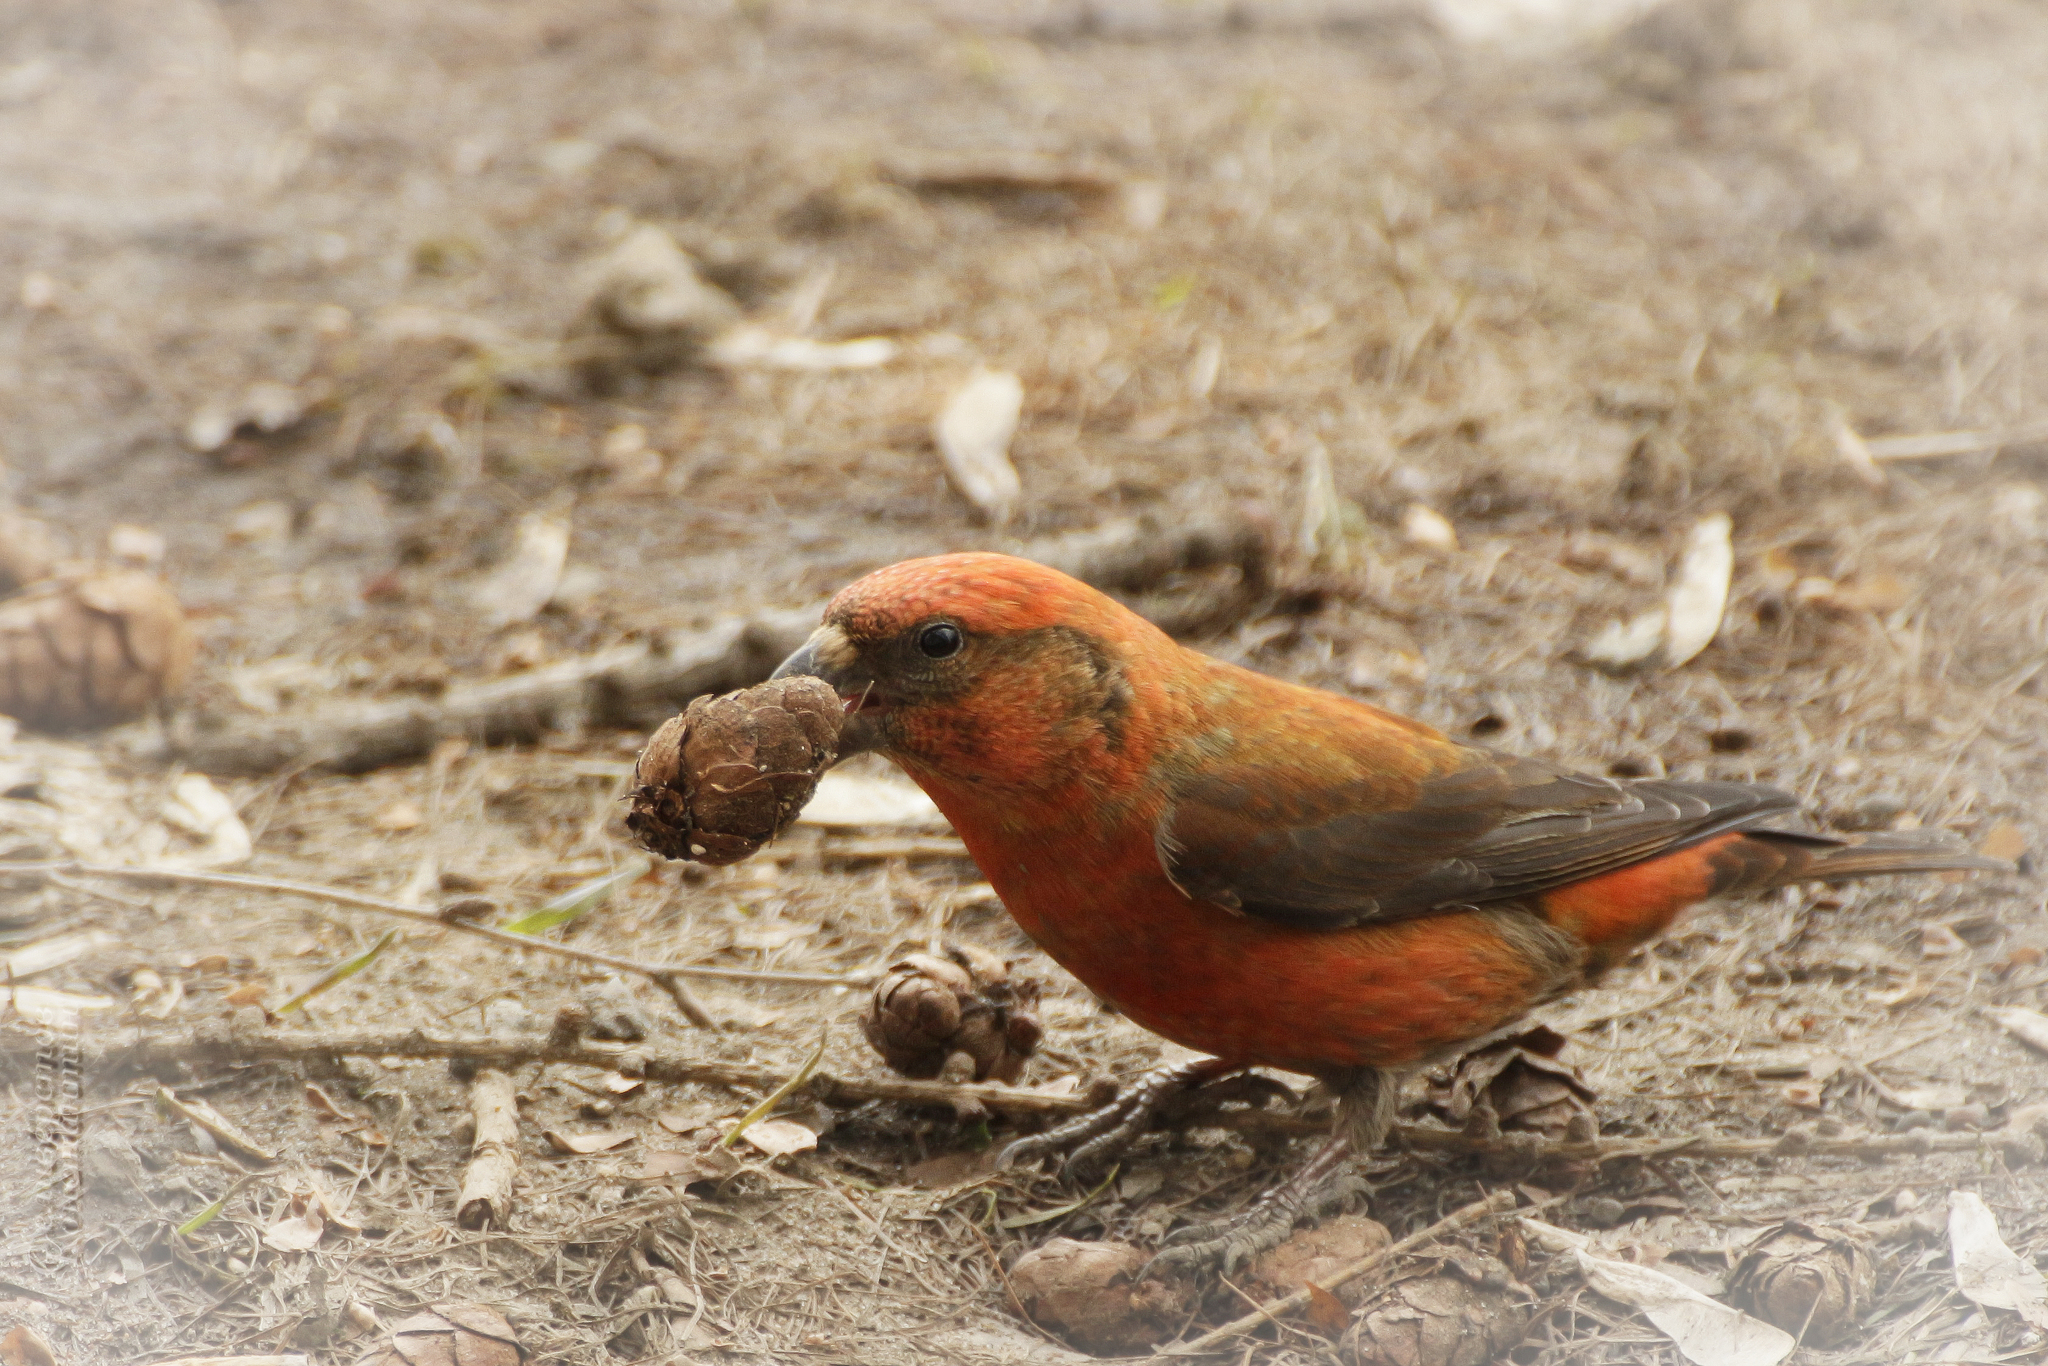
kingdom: Animalia
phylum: Chordata
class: Aves
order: Passeriformes
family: Fringillidae
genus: Loxia
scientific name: Loxia curvirostra
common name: Red crossbill
